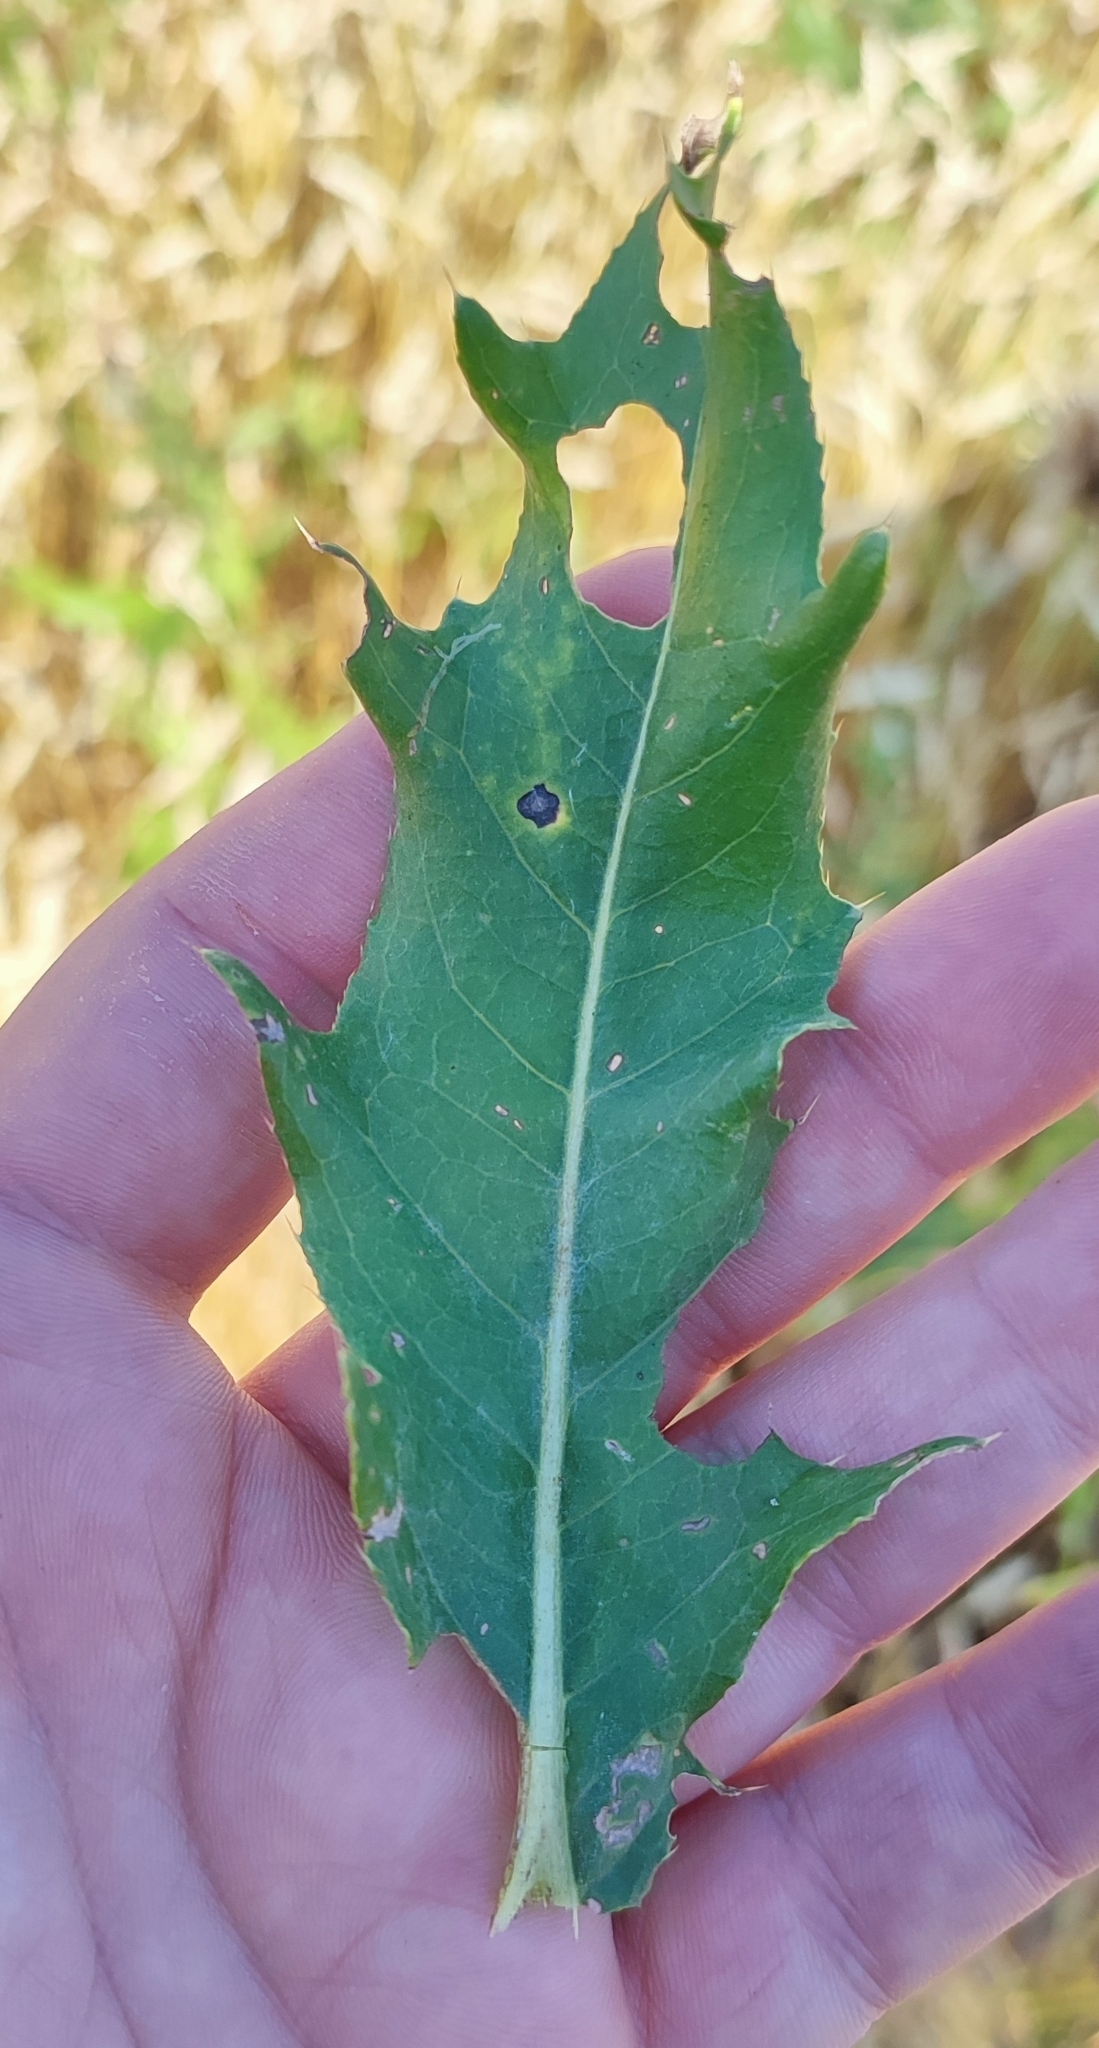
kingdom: Plantae
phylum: Tracheophyta
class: Magnoliopsida
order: Asterales
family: Asteraceae
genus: Cirsium
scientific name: Cirsium arvense
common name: Creeping thistle
